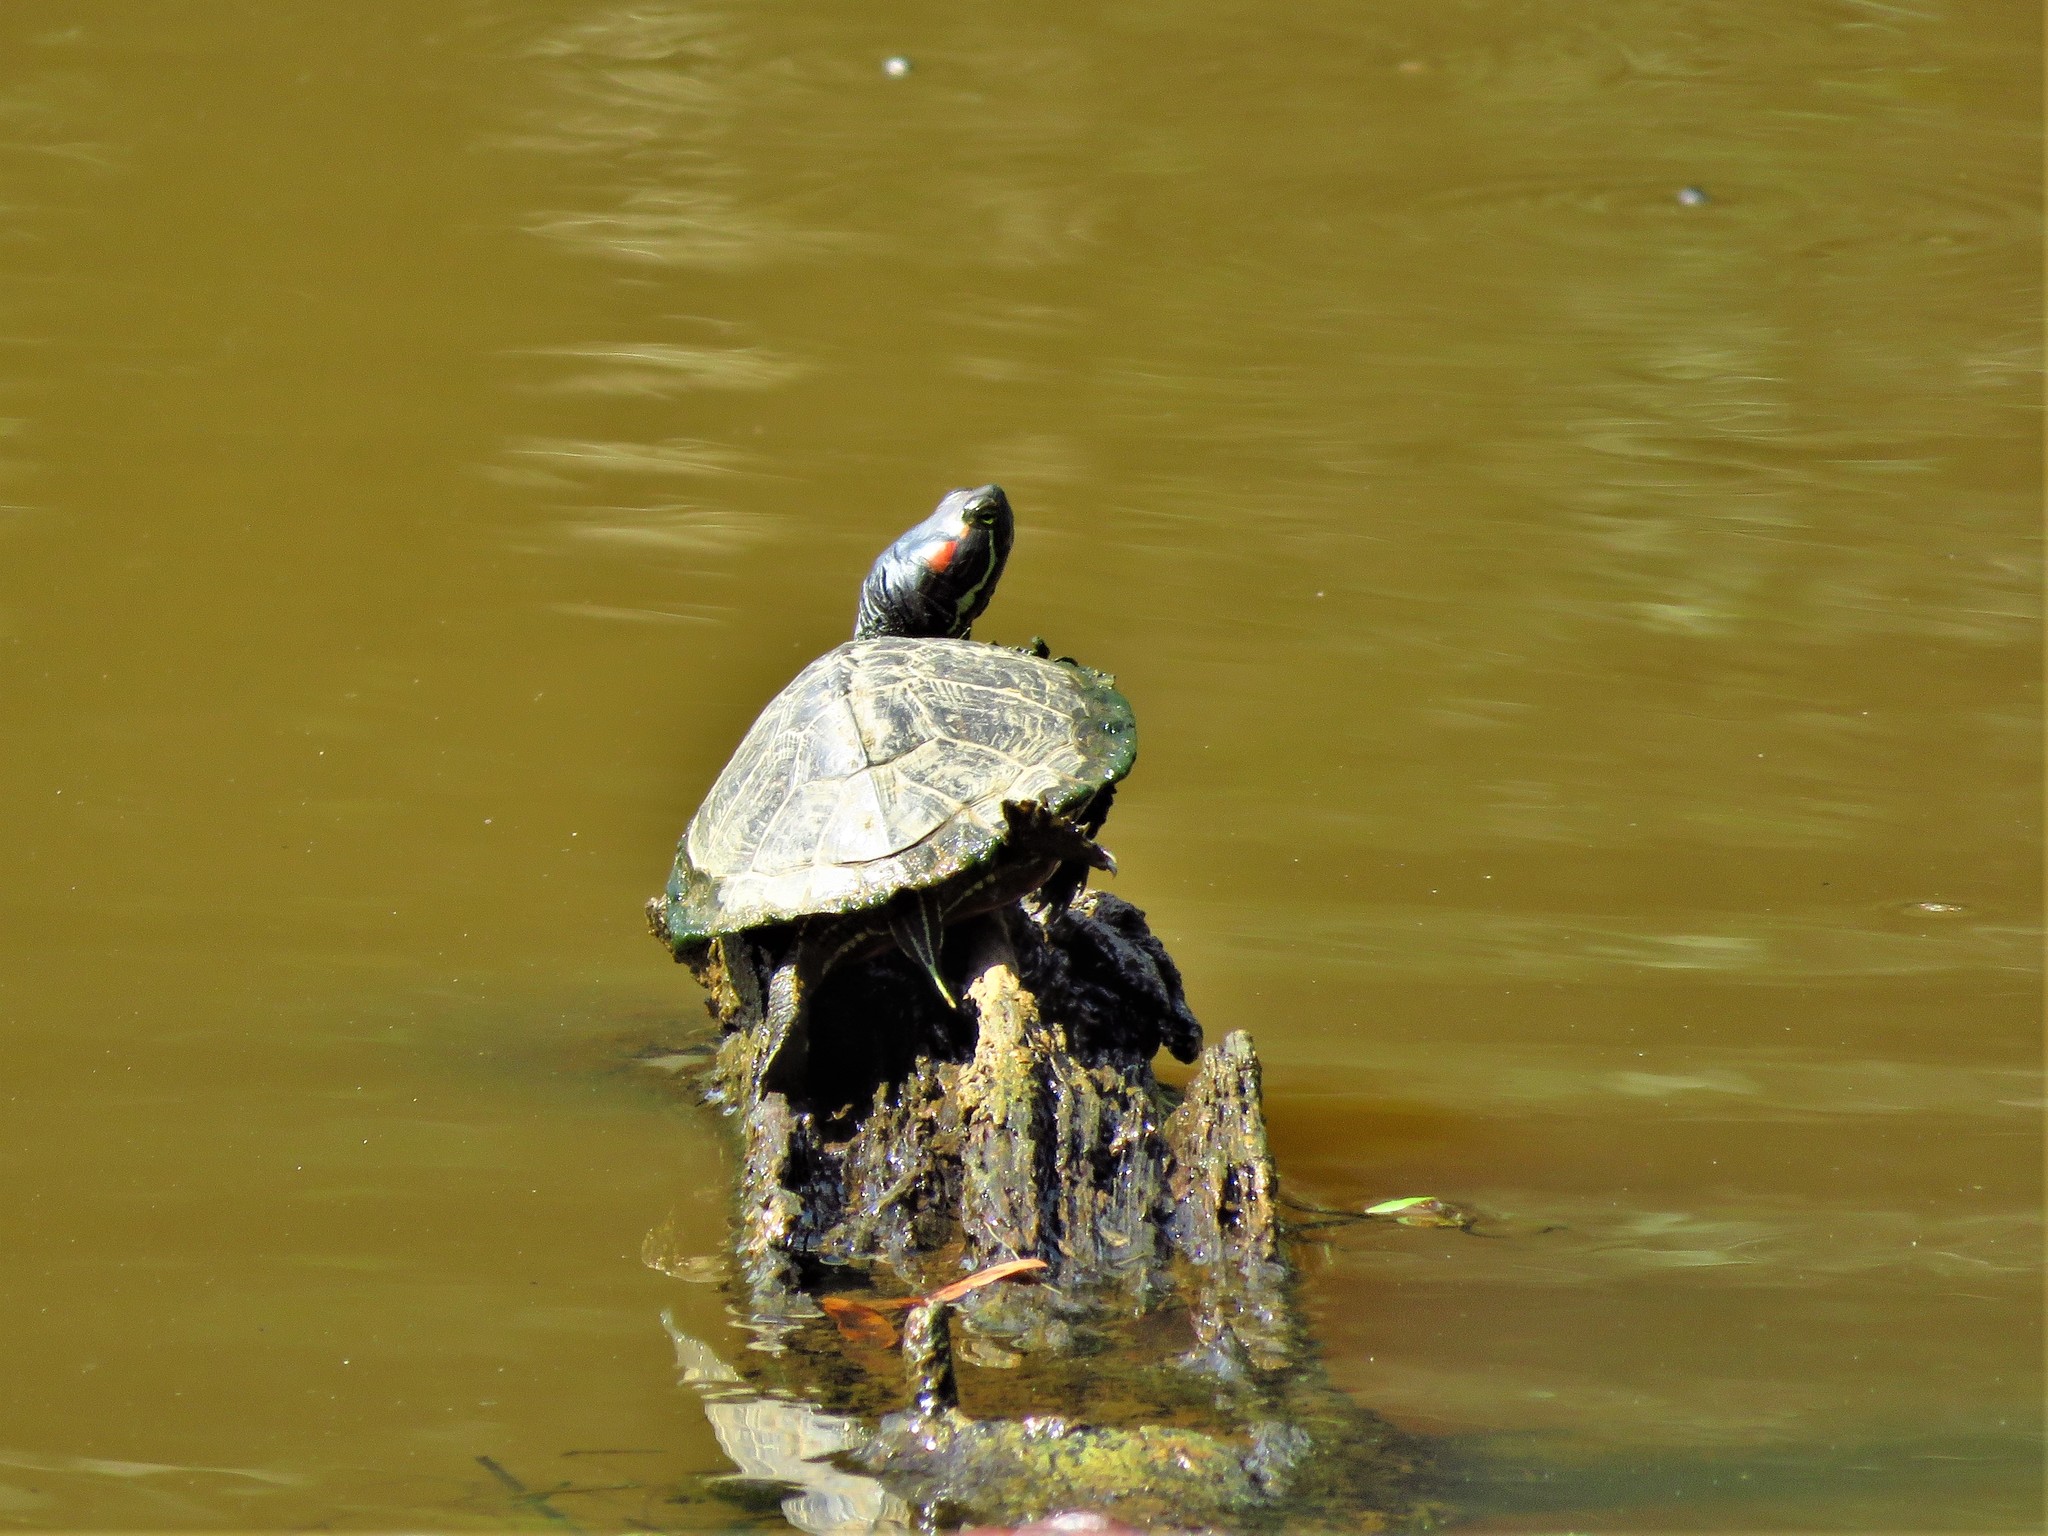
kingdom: Animalia
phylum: Chordata
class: Testudines
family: Emydidae
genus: Trachemys
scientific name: Trachemys scripta
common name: Slider
